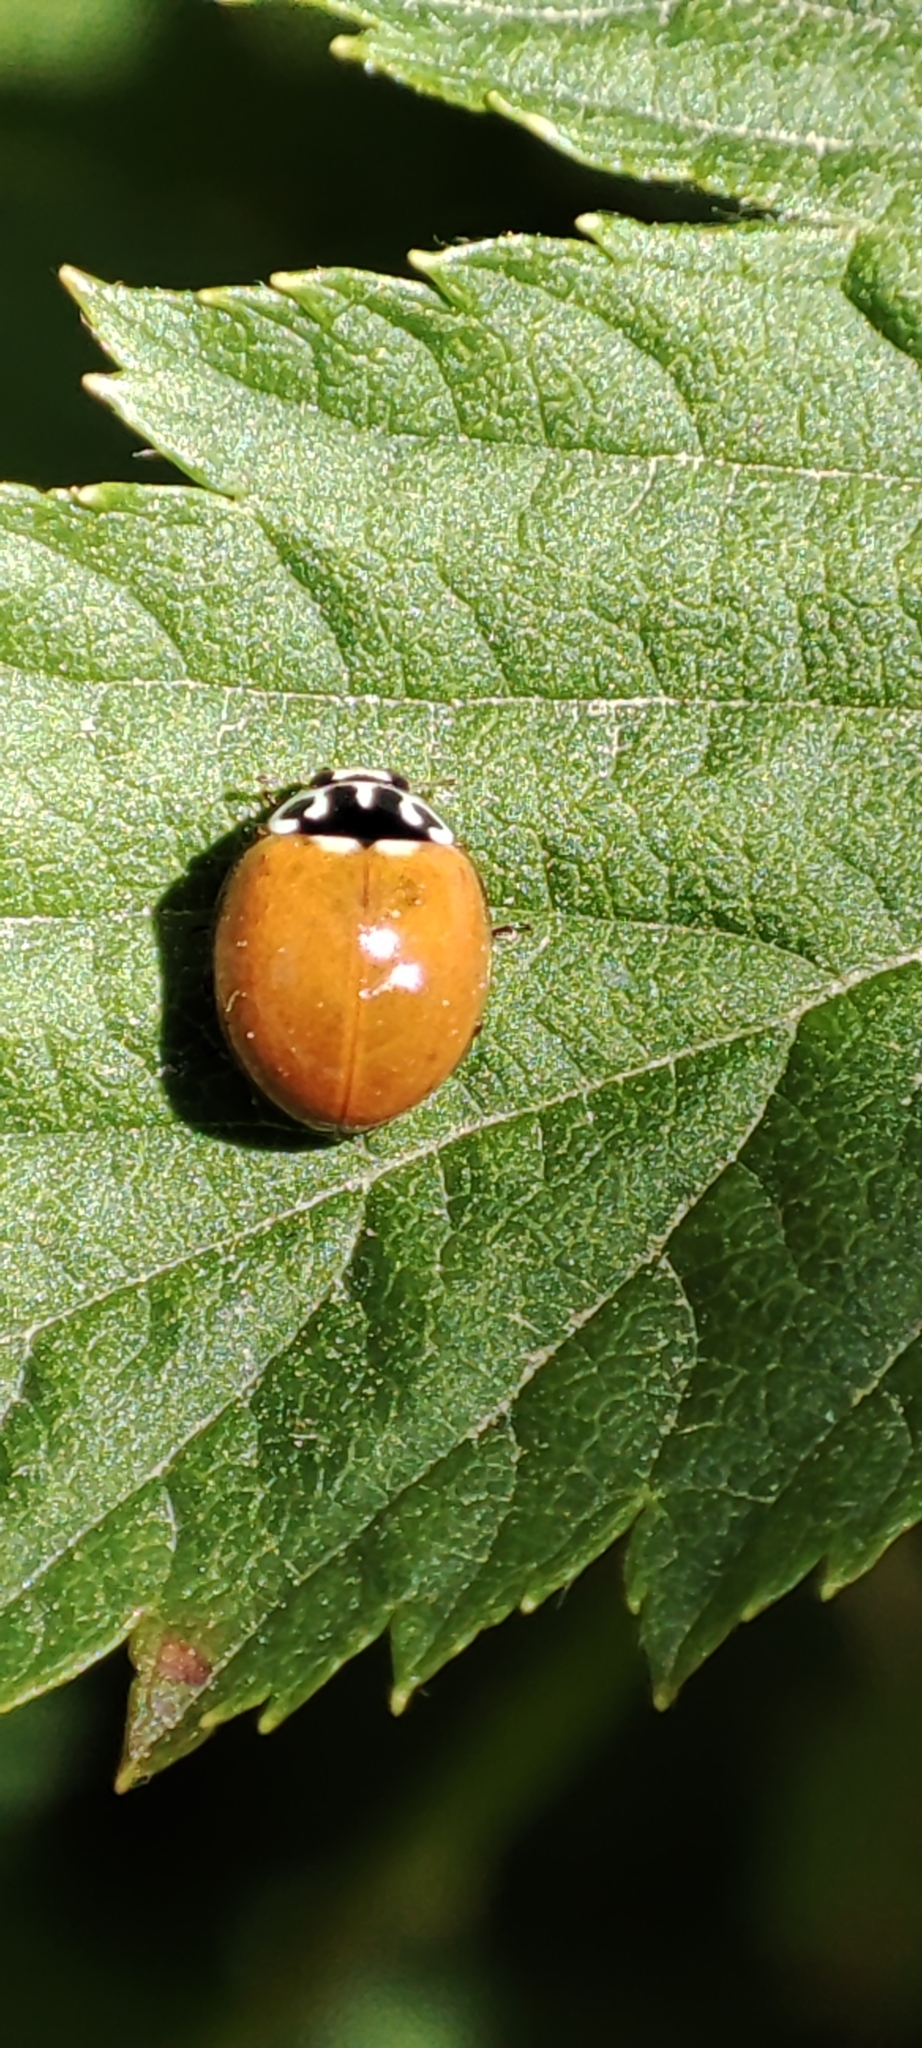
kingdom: Animalia
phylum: Arthropoda
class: Insecta
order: Coleoptera
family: Coccinellidae
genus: Cycloneda
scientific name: Cycloneda polita
